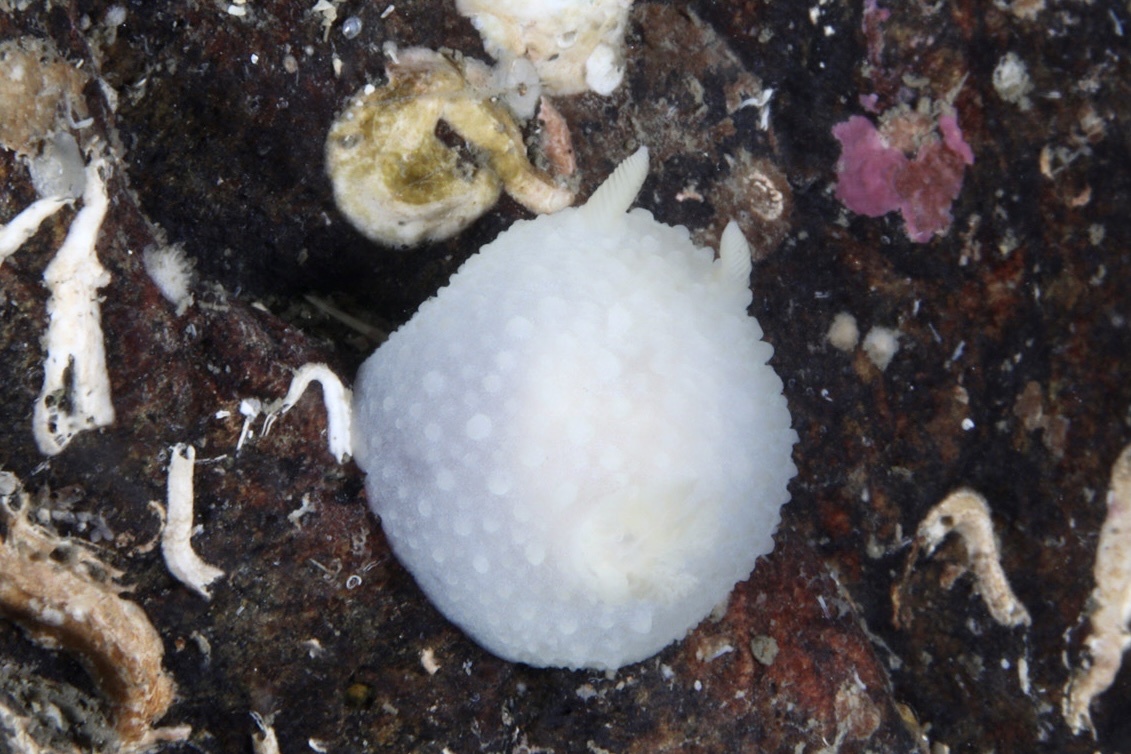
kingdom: Animalia
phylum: Mollusca
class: Gastropoda
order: Nudibranchia
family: Cadlinidae
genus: Aldisa
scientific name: Aldisa zetlandica
